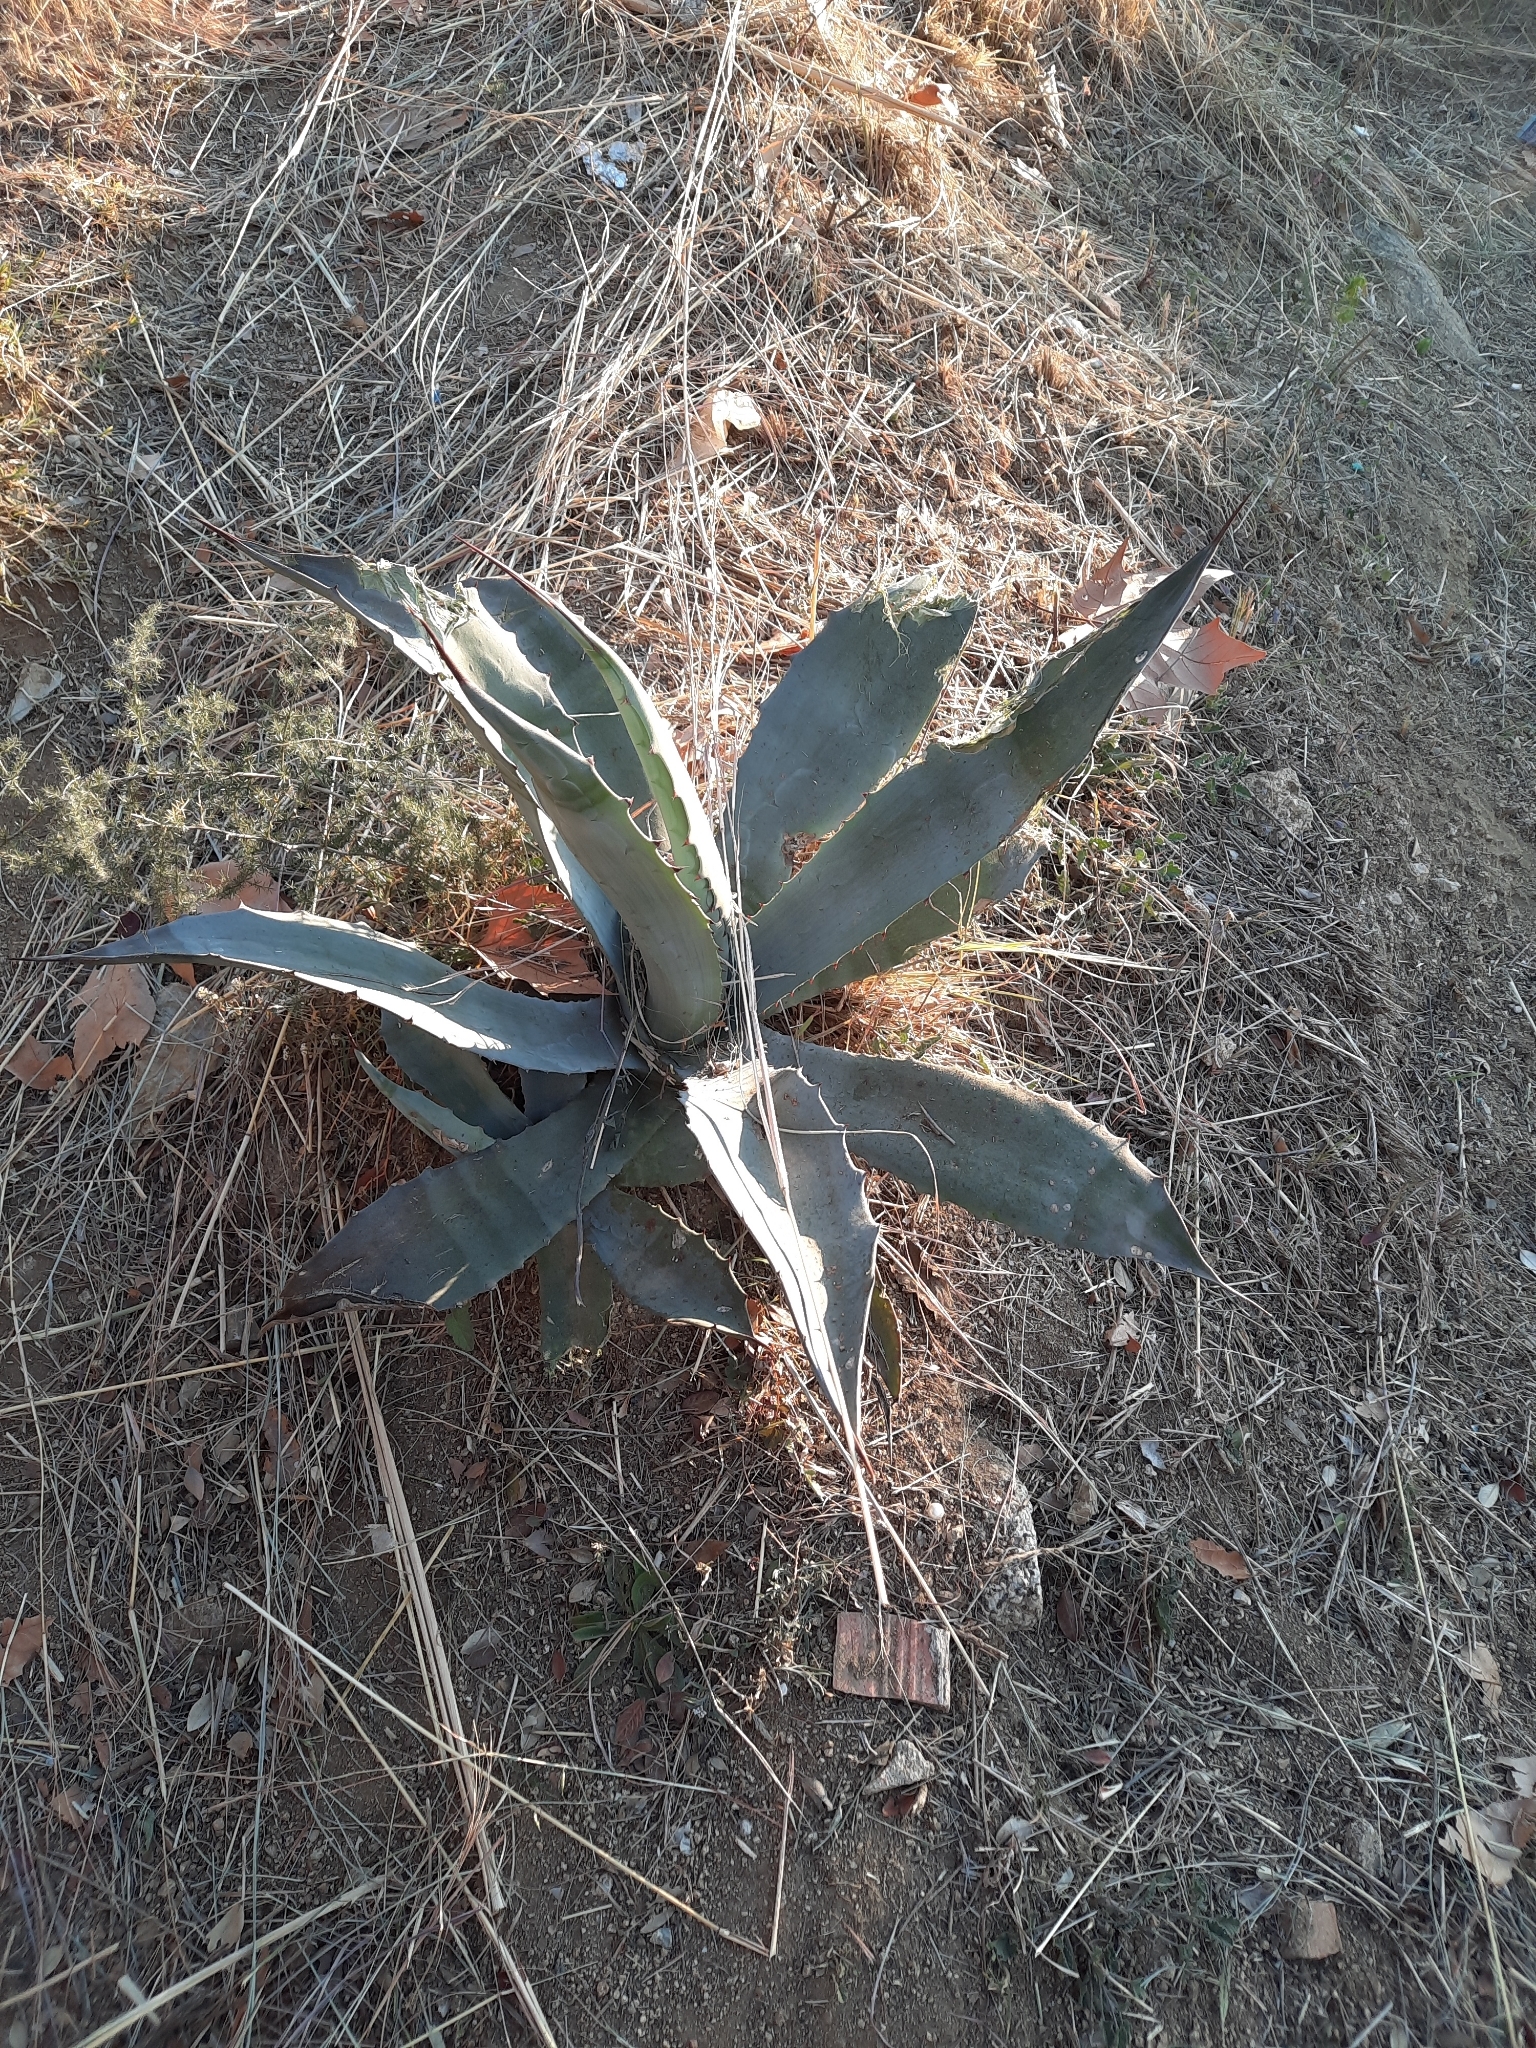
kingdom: Plantae
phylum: Tracheophyta
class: Liliopsida
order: Asparagales
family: Asparagaceae
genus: Agave
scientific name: Agave americana
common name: Centuryplant
